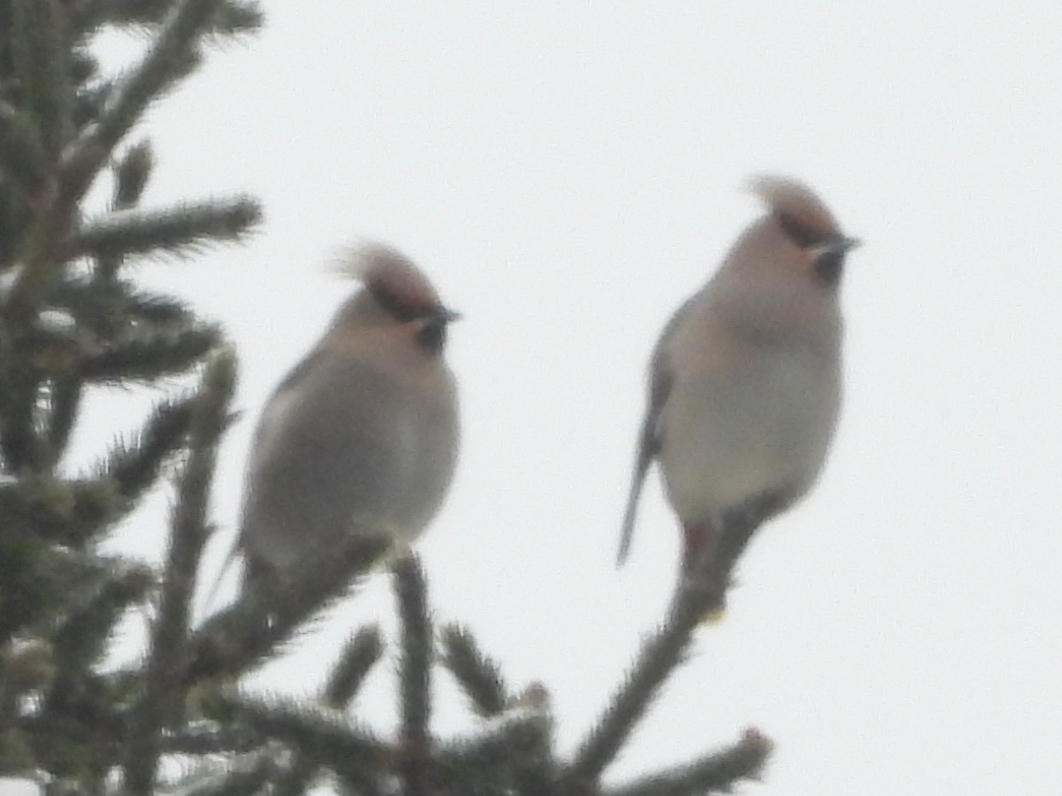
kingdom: Animalia
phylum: Chordata
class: Aves
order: Passeriformes
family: Bombycillidae
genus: Bombycilla
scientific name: Bombycilla garrulus
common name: Bohemian waxwing
